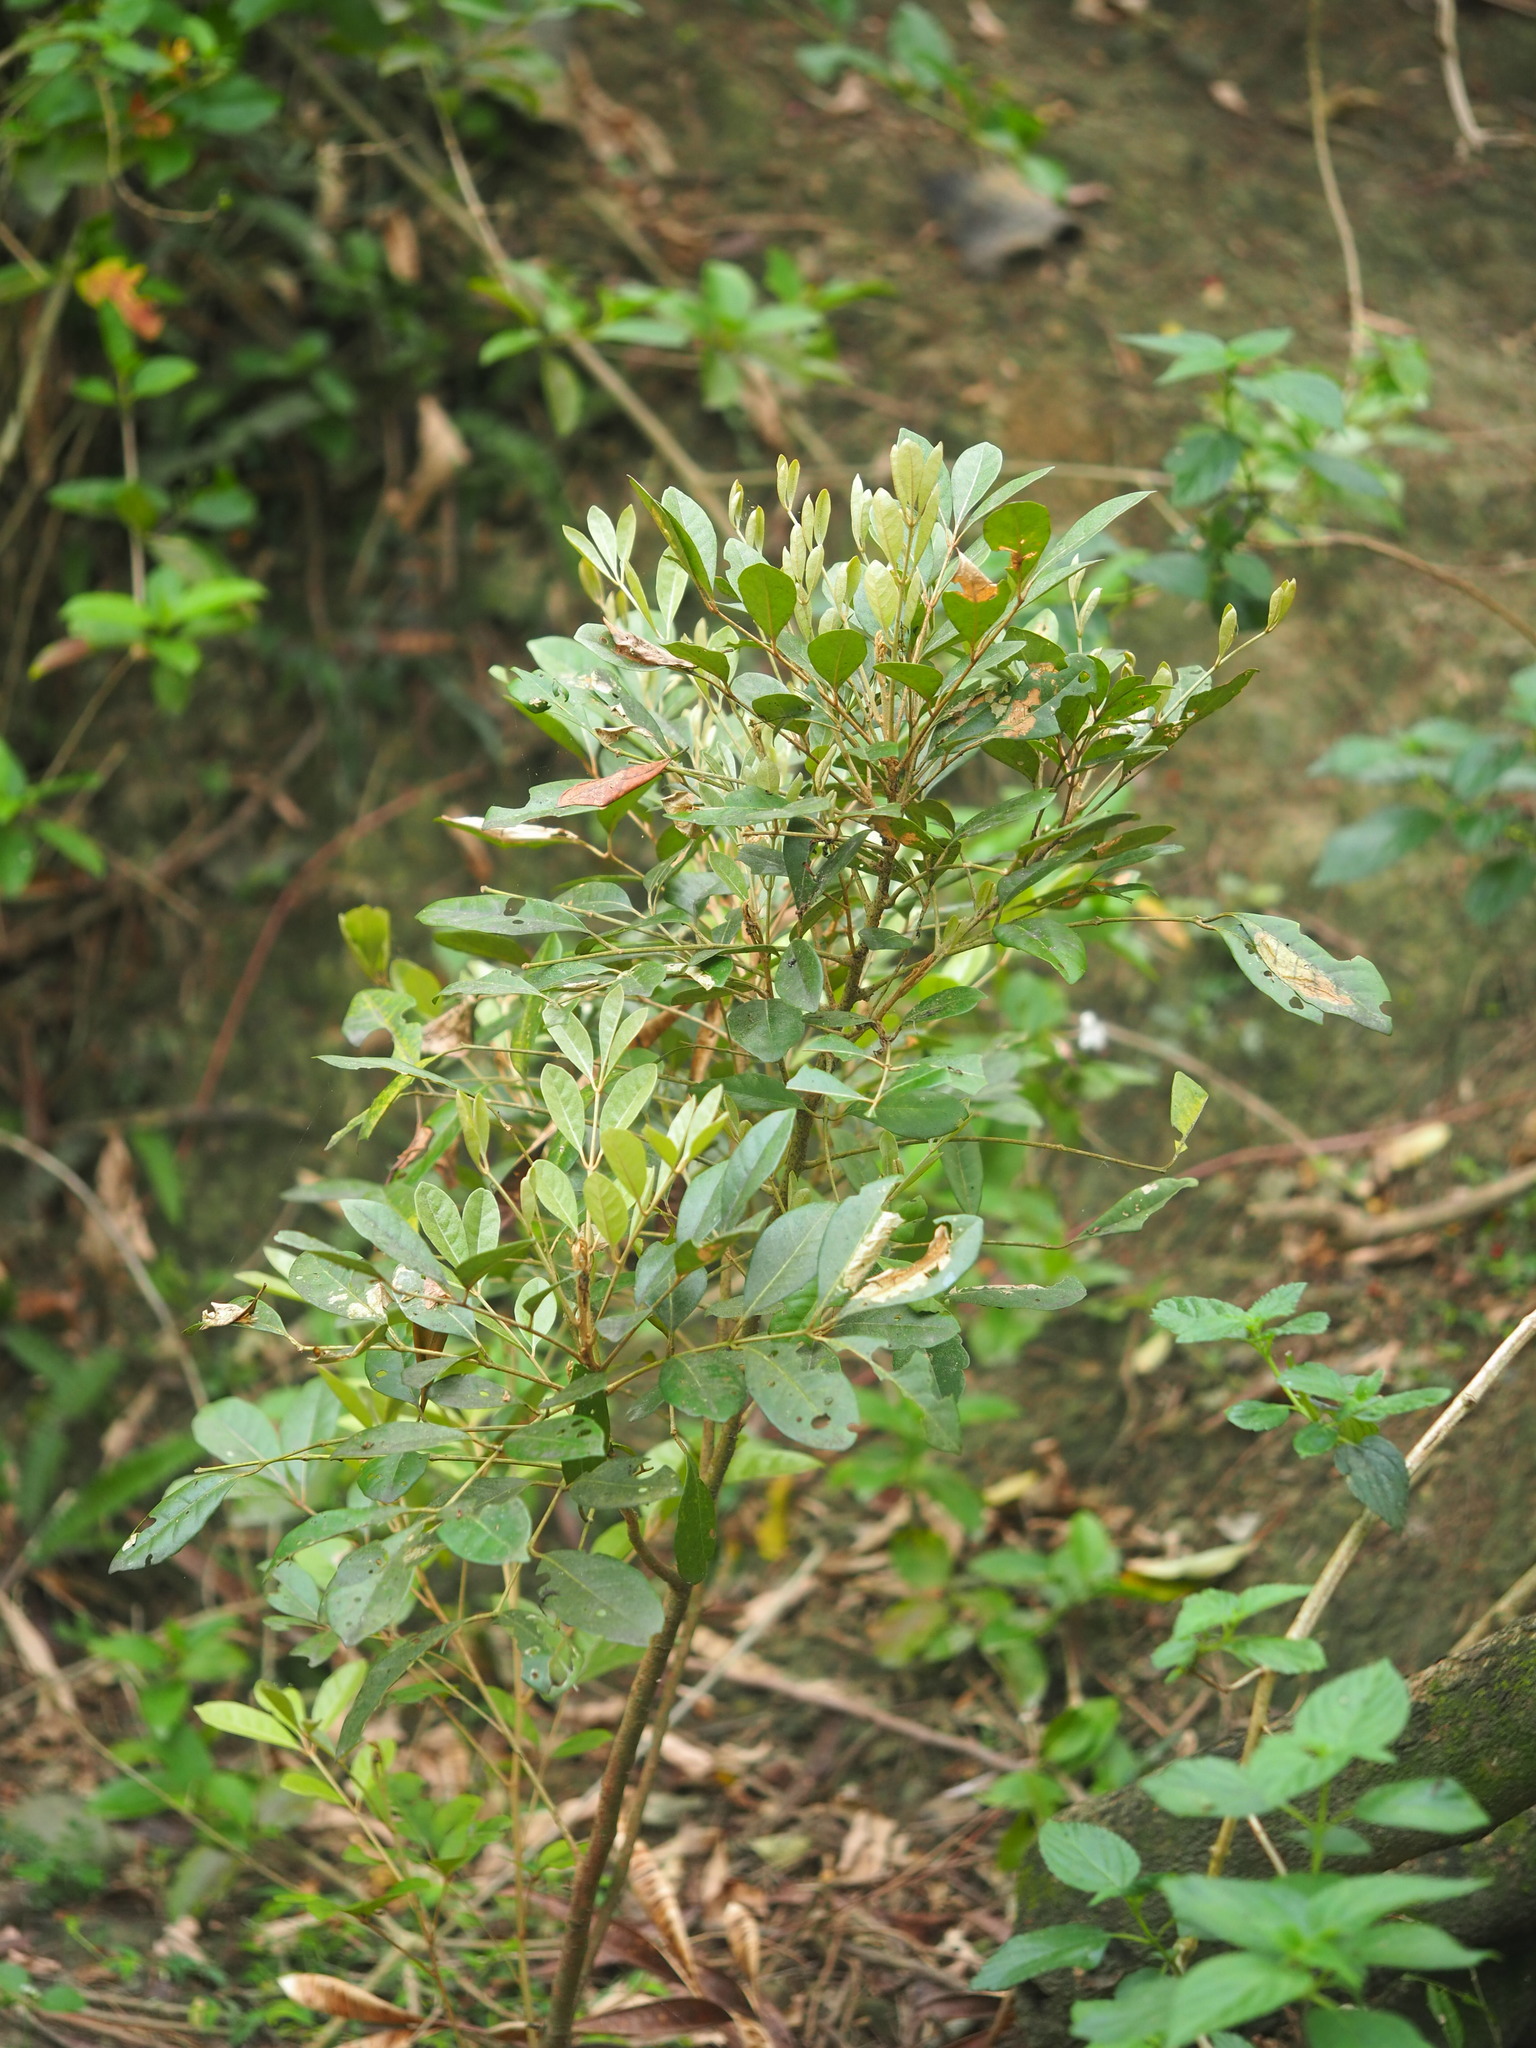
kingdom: Plantae
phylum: Tracheophyta
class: Magnoliopsida
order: Sapindales
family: Meliaceae
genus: Aglaia
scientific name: Aglaia elaeagnoidea
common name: Droopyleaf
